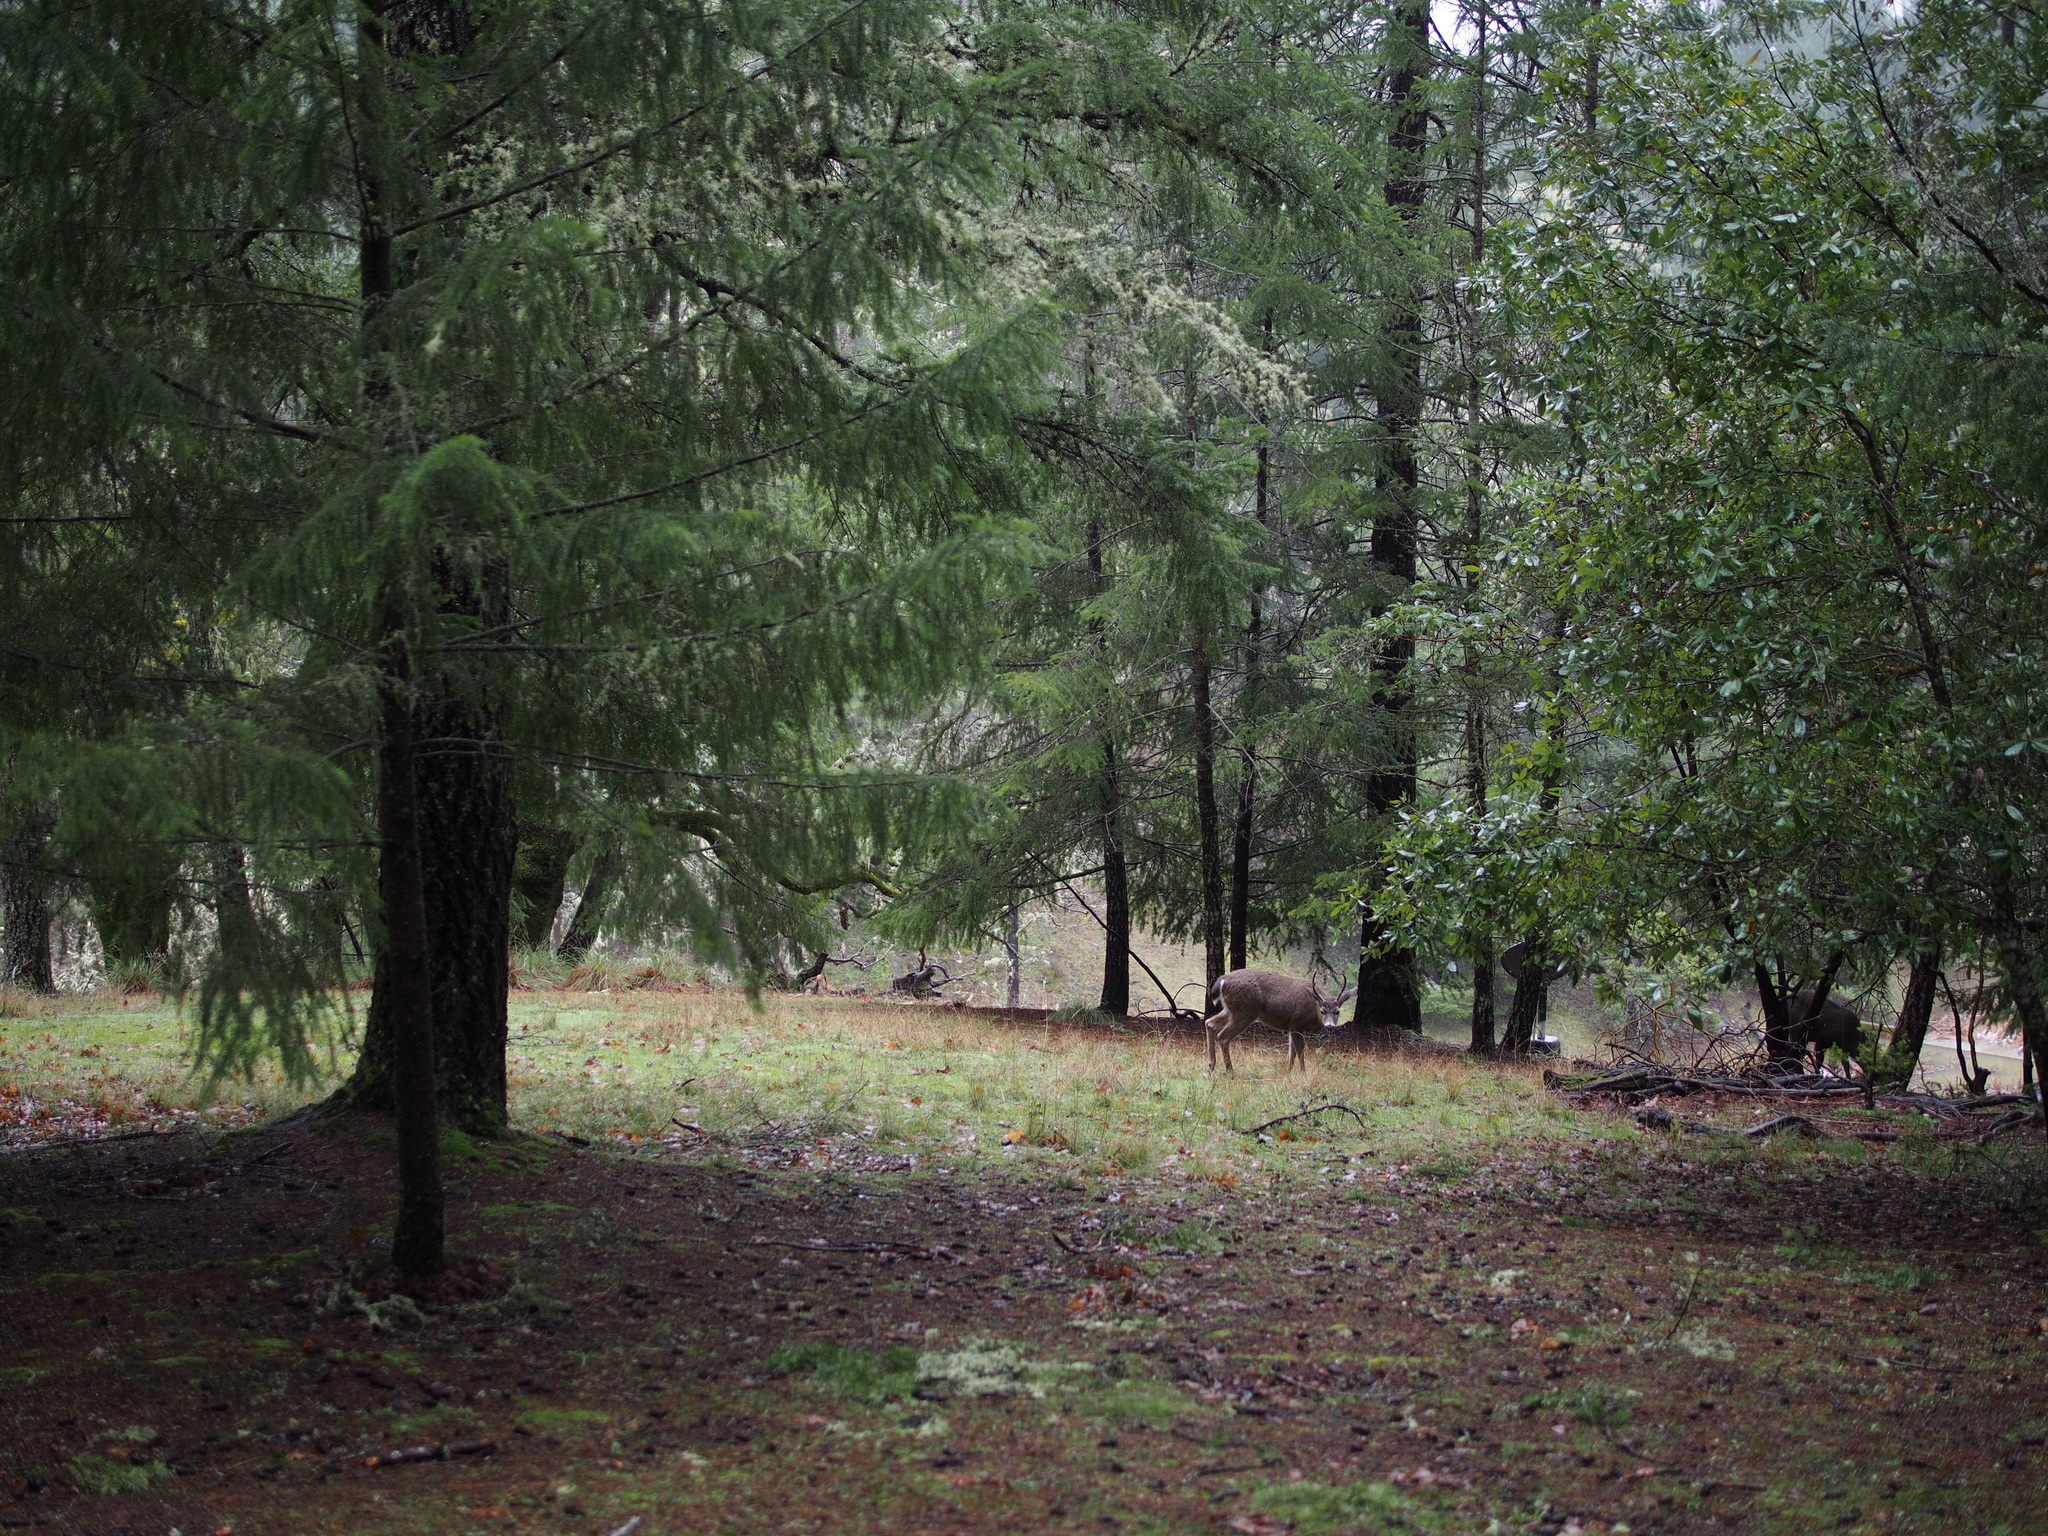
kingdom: Animalia
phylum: Chordata
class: Mammalia
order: Artiodactyla
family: Cervidae
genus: Odocoileus
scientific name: Odocoileus hemionus
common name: Mule deer
